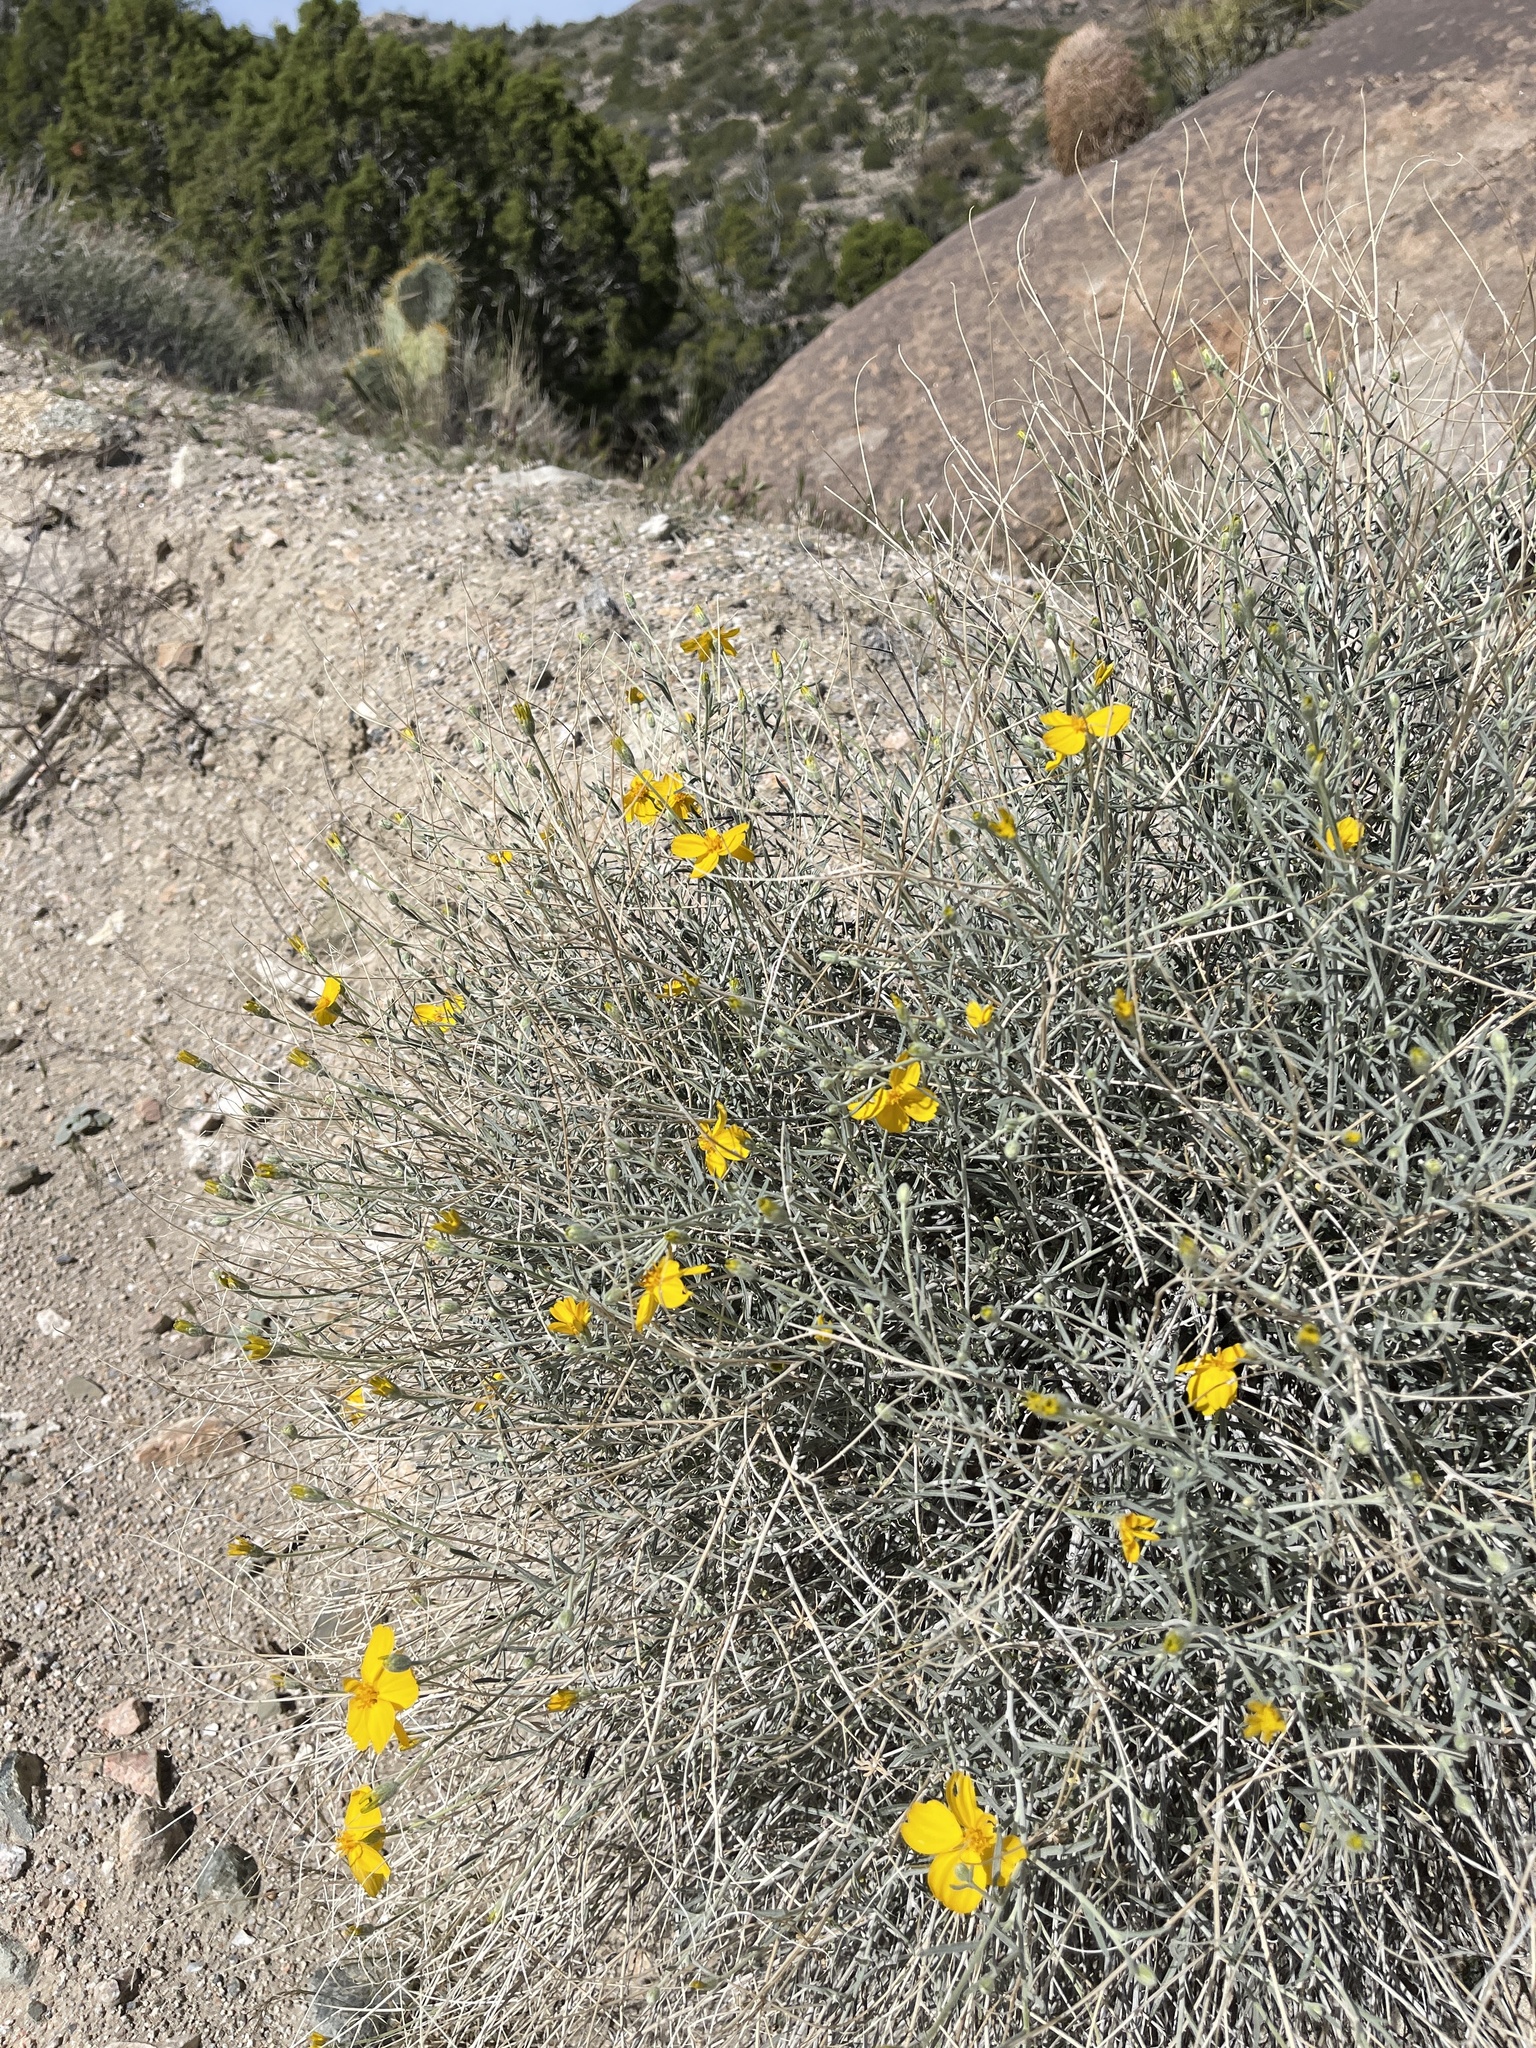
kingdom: Plantae
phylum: Tracheophyta
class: Magnoliopsida
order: Asterales
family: Asteraceae
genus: Psilostrophe
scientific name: Psilostrophe cooperi
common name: White-stem paper-flower
